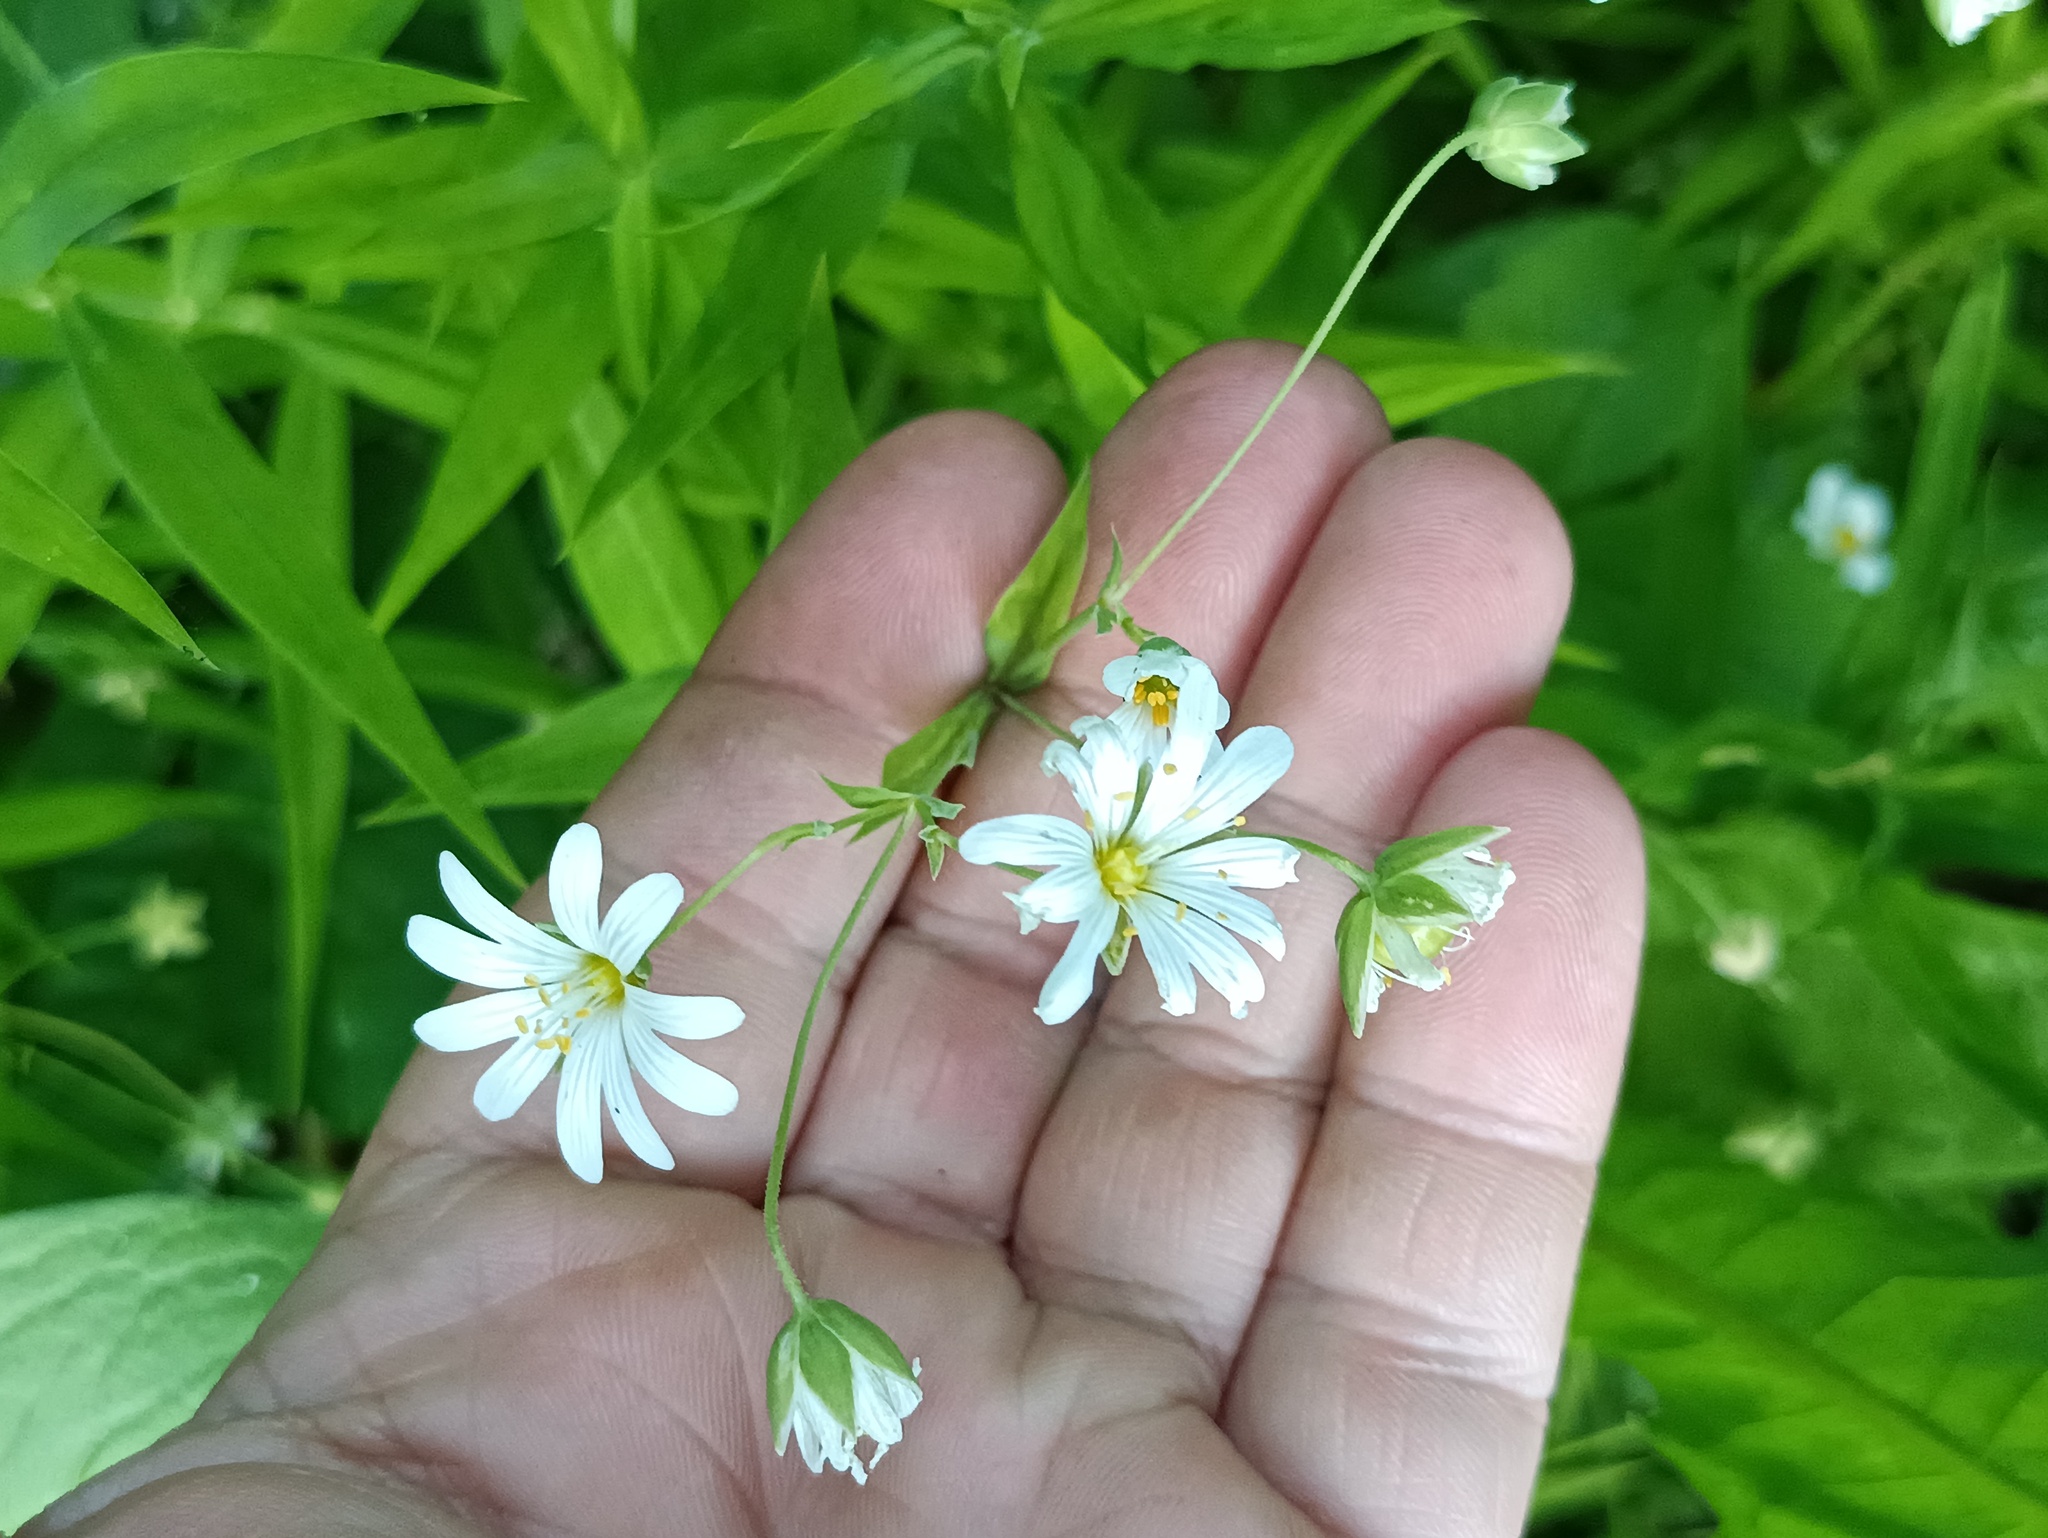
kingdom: Plantae
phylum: Tracheophyta
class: Magnoliopsida
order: Caryophyllales
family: Caryophyllaceae
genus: Rabelera
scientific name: Rabelera holostea
